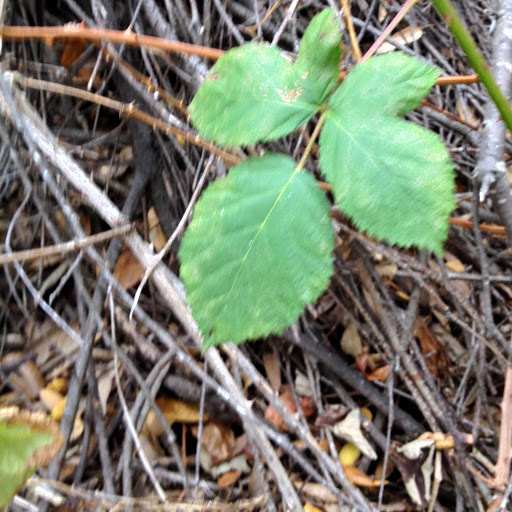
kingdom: Plantae
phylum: Tracheophyta
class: Magnoliopsida
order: Rosales
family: Rosaceae
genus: Rubus
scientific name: Rubus armeniacus
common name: Himalayan blackberry
